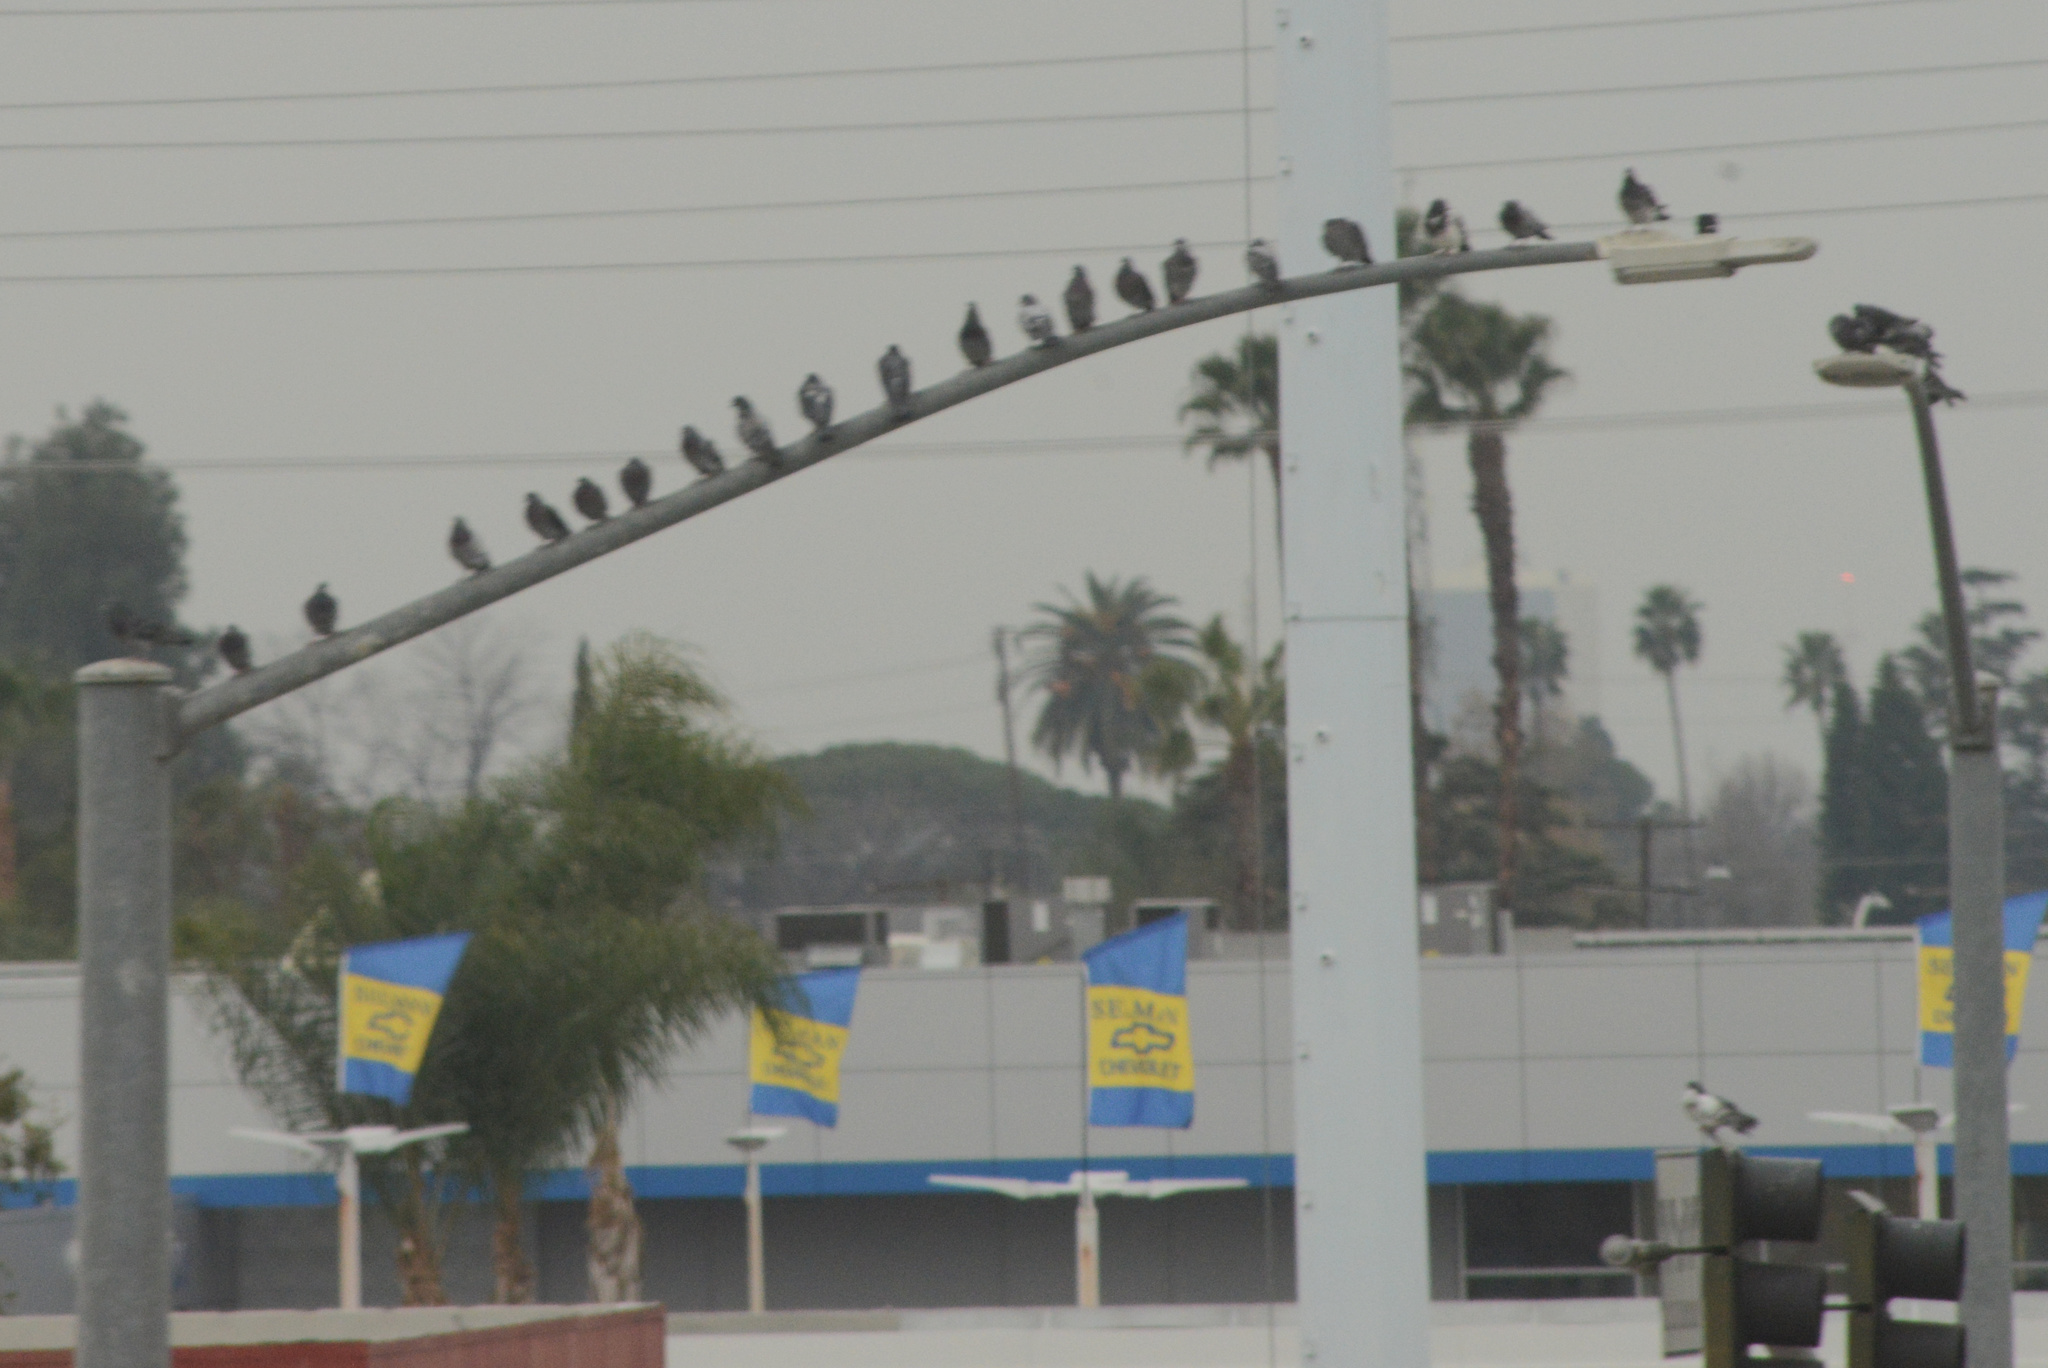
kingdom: Animalia
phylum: Chordata
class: Aves
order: Columbiformes
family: Columbidae
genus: Columba
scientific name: Columba livia
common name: Rock pigeon
